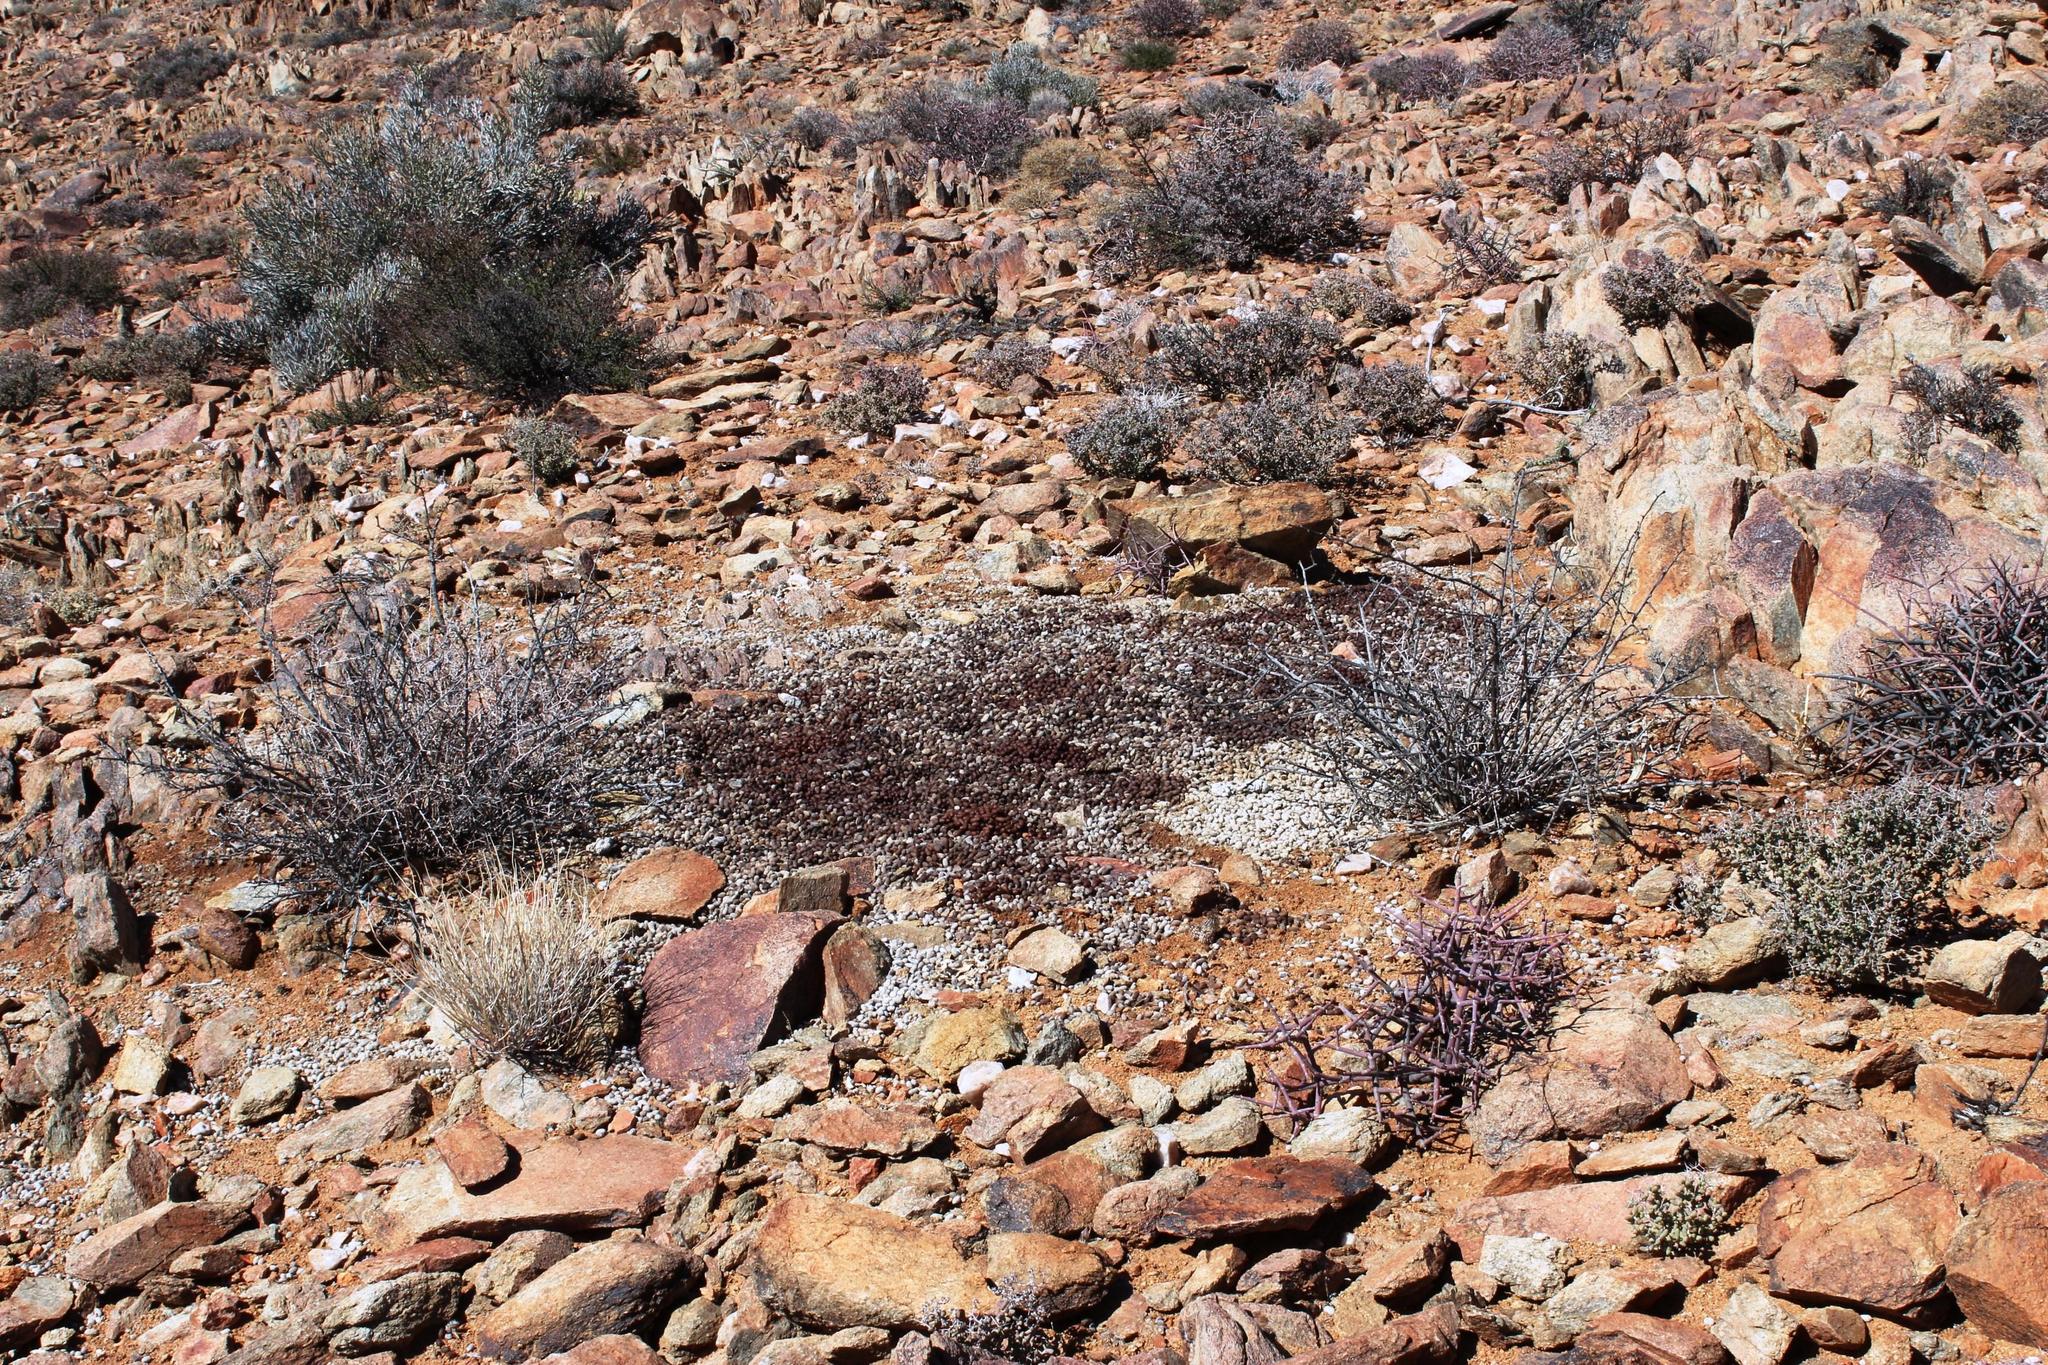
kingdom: Animalia
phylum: Chordata
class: Mammalia
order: Artiodactyla
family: Bovidae
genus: Oreotragus
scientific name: Oreotragus oreotragus
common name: Klipspringer
